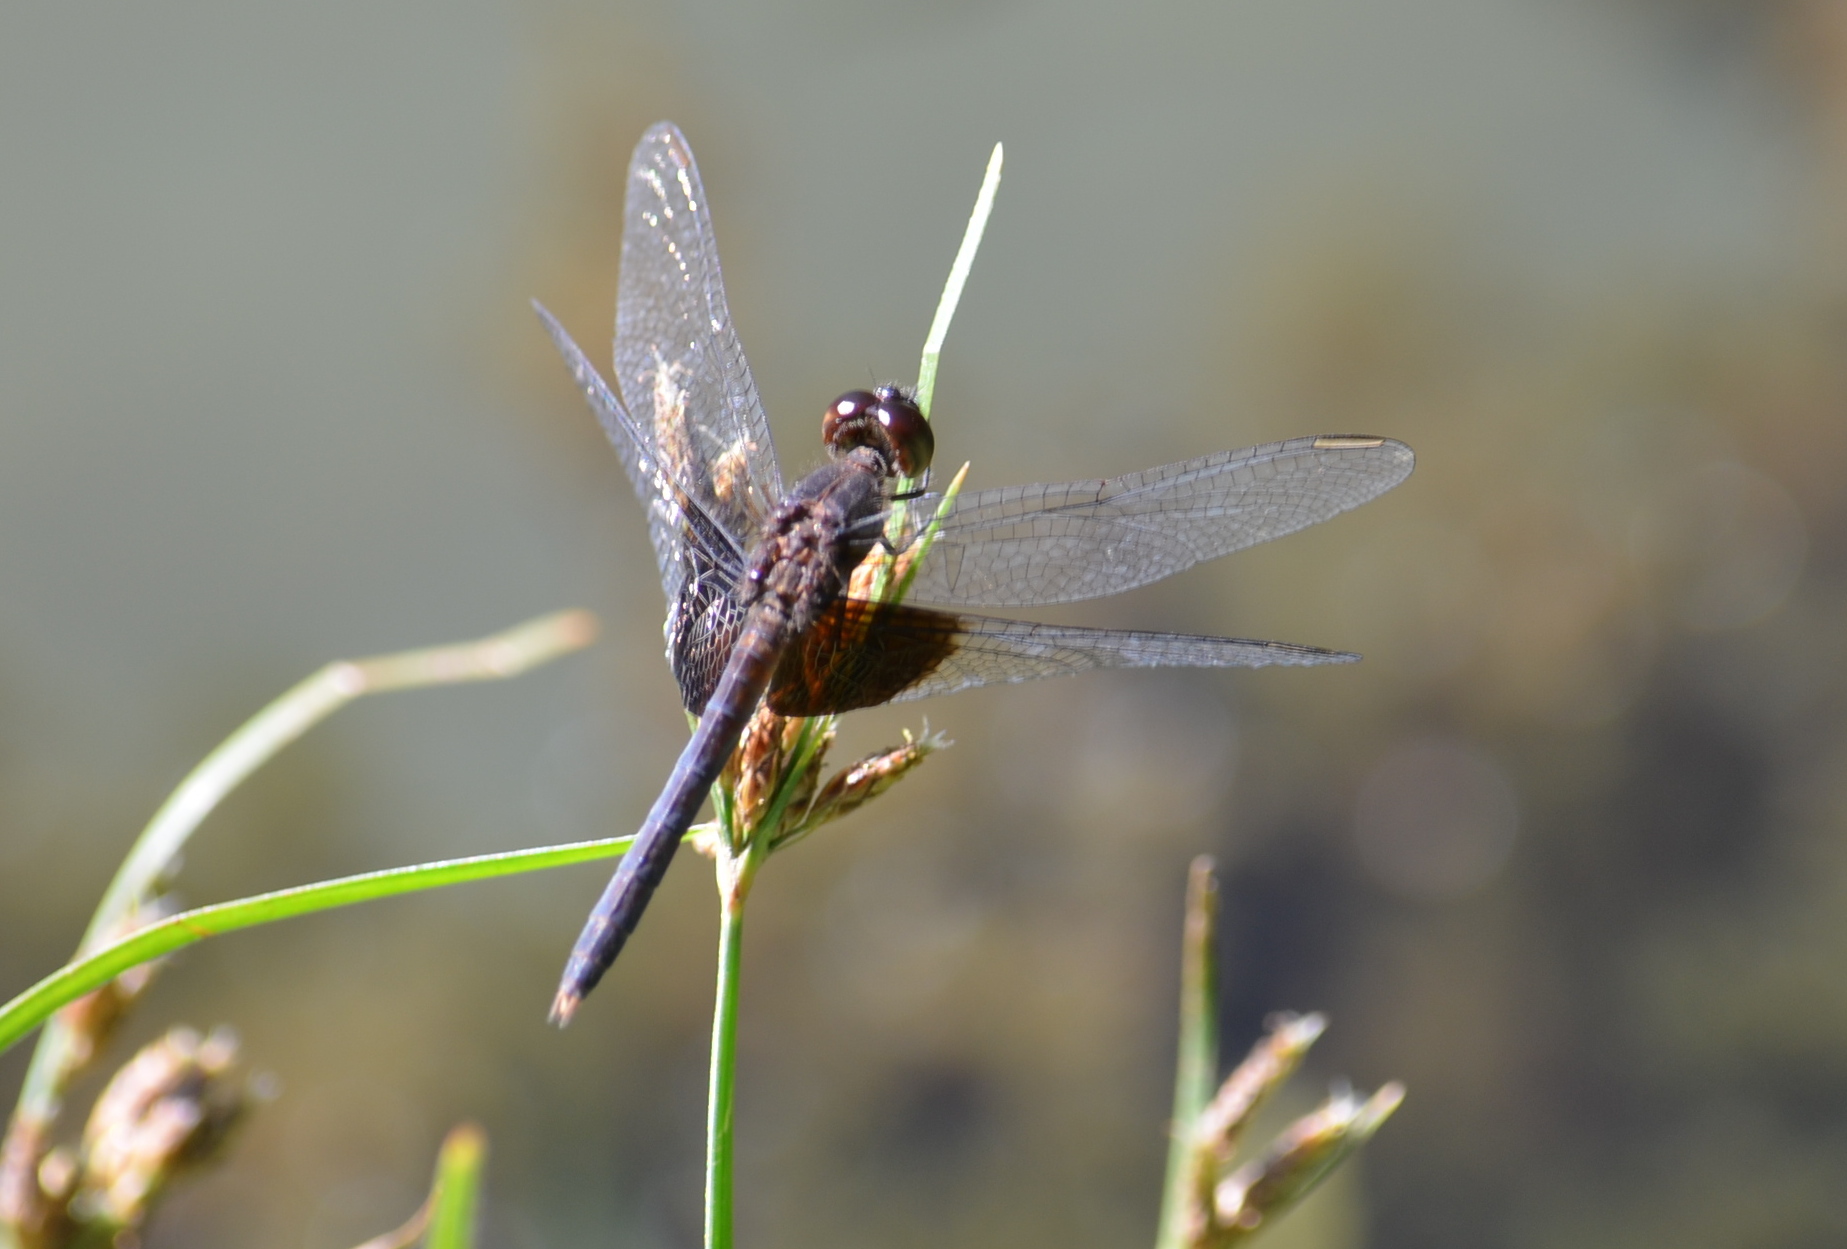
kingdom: Animalia
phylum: Arthropoda
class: Insecta
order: Odonata
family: Libellulidae
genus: Erythrodiplax
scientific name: Erythrodiplax latimaculata
